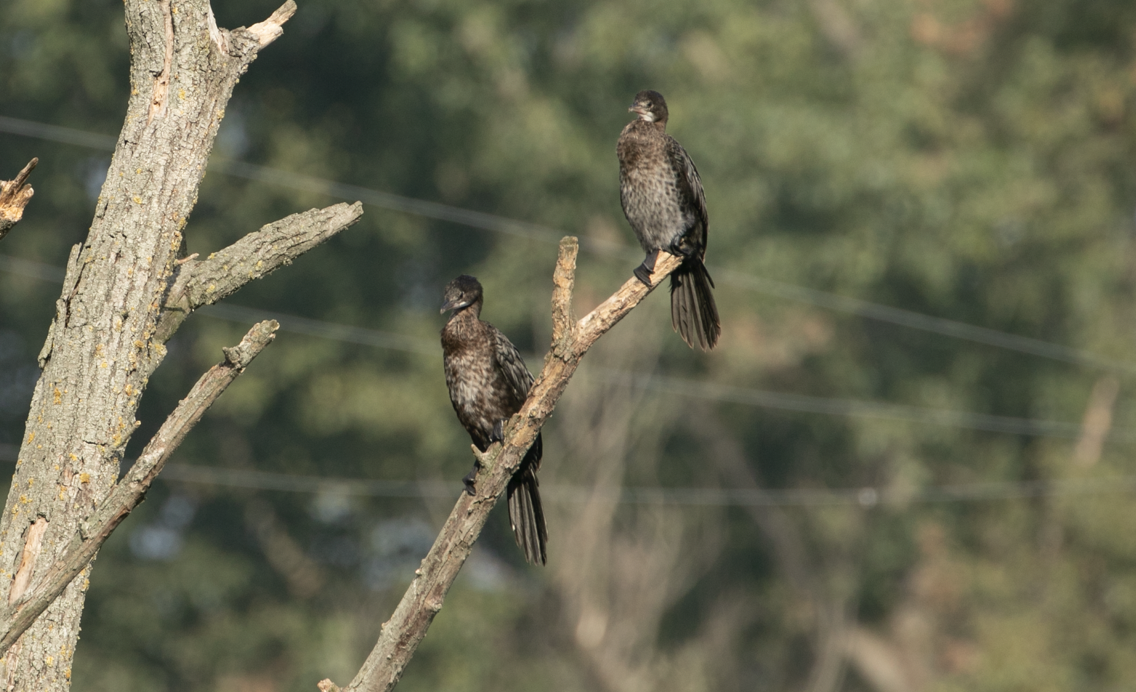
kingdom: Animalia
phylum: Chordata
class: Aves
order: Suliformes
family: Phalacrocoracidae
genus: Microcarbo
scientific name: Microcarbo pygmaeus
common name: Pygmy cormorant
